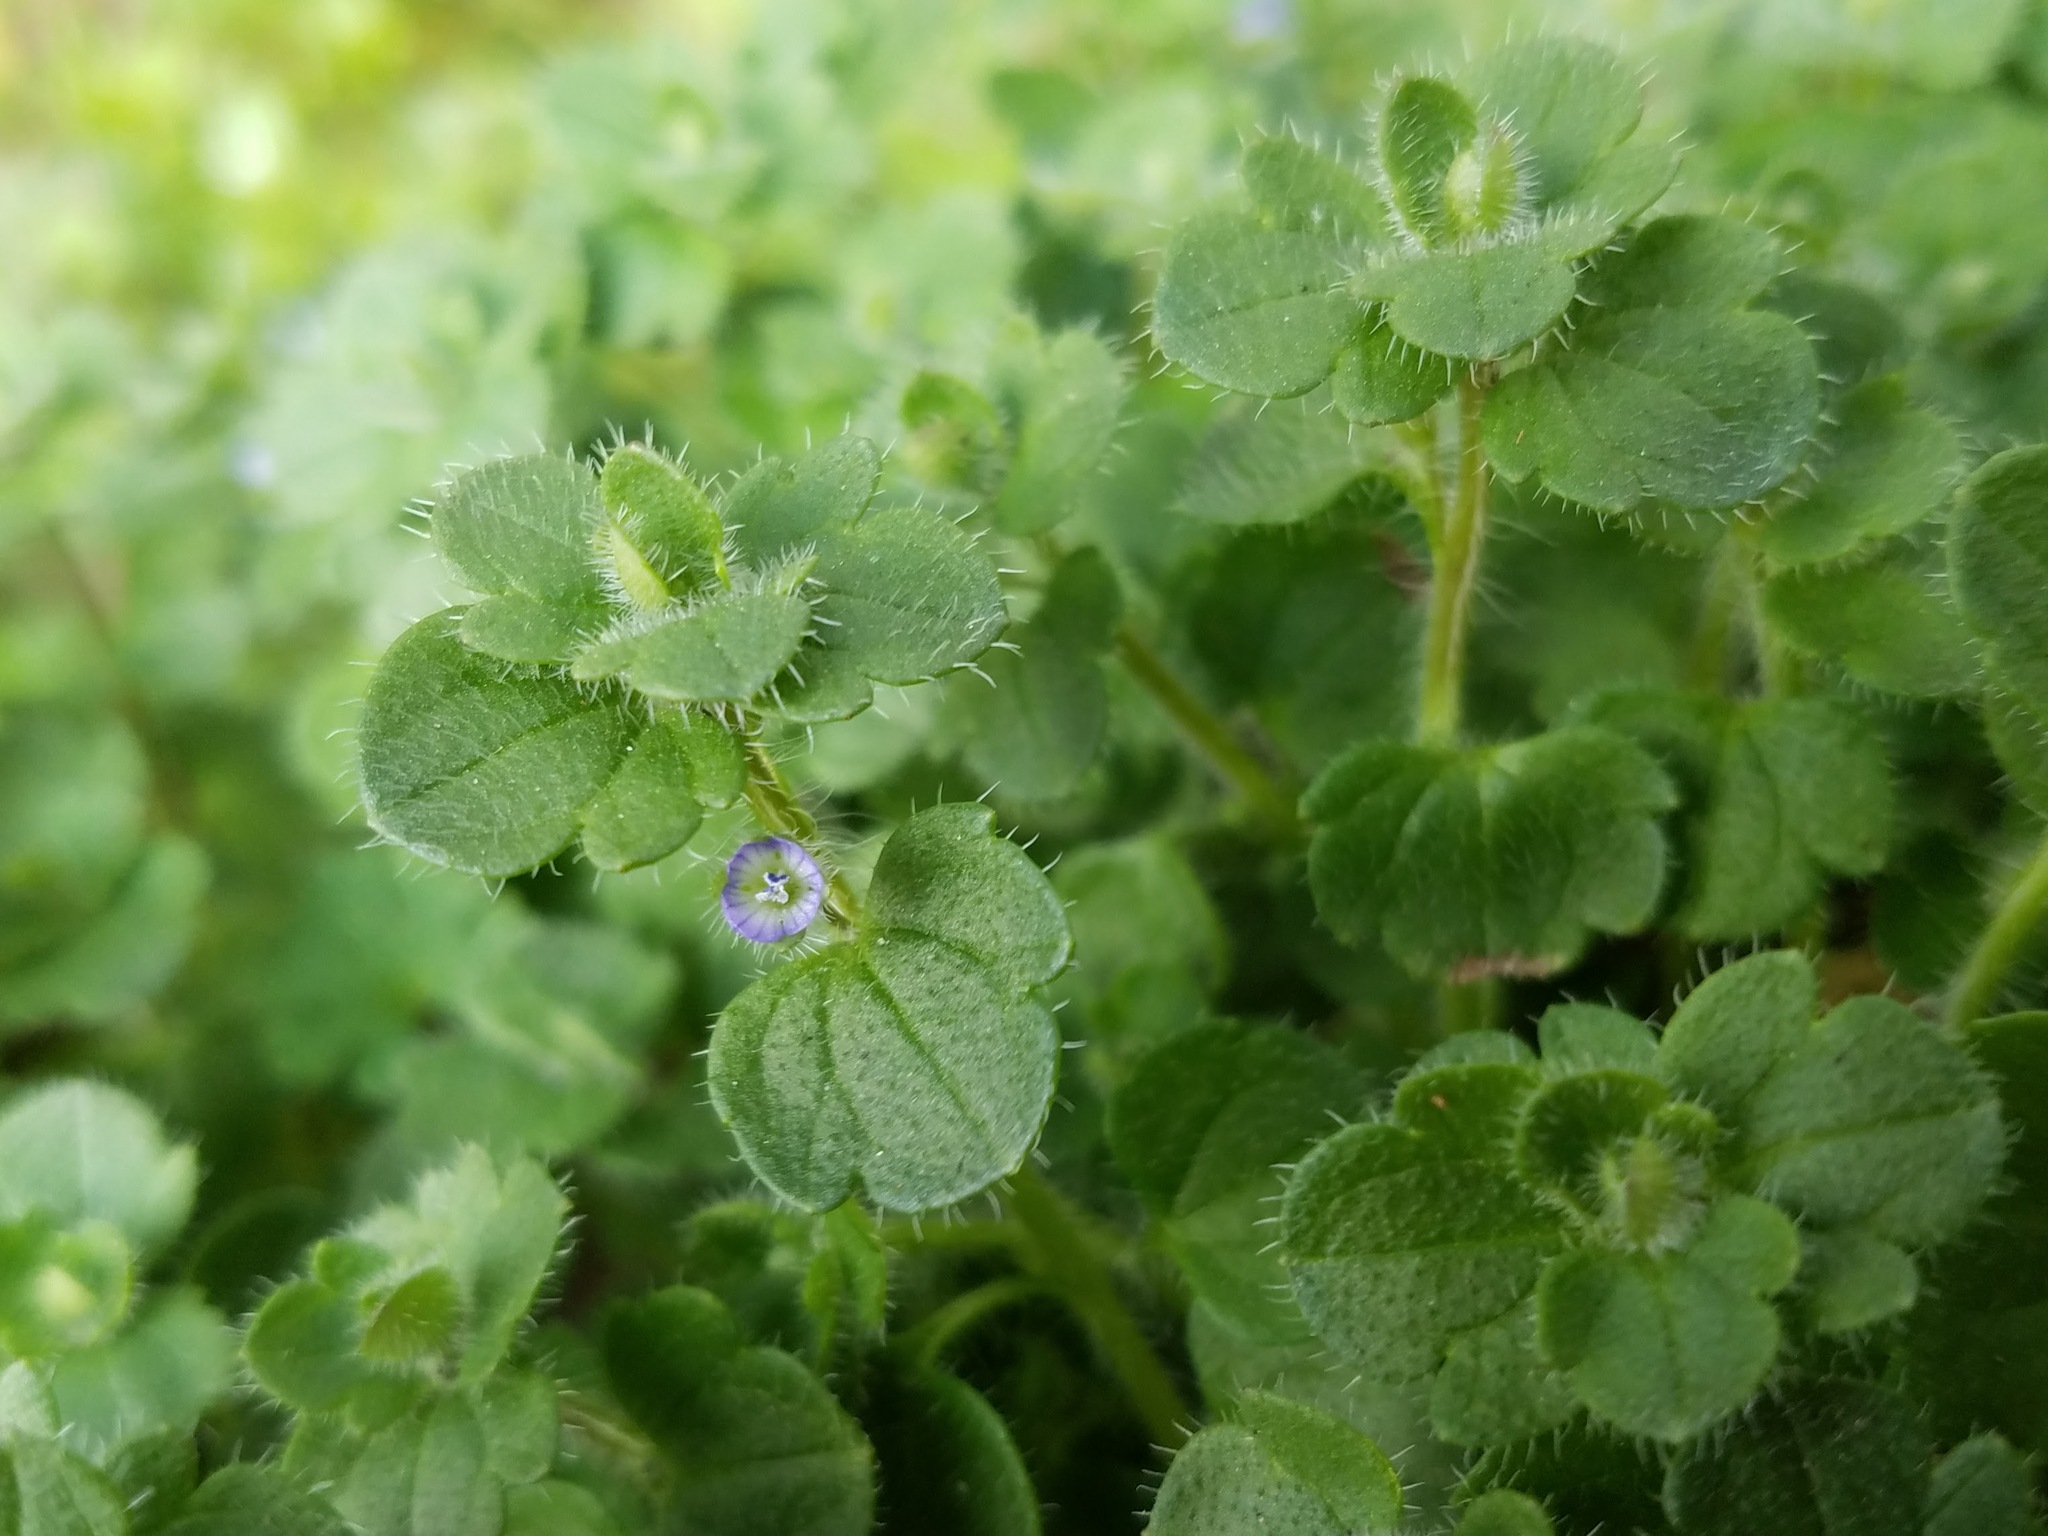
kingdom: Plantae
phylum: Tracheophyta
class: Magnoliopsida
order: Lamiales
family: Plantaginaceae
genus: Veronica
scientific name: Veronica hederifolia
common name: Ivy-leaved speedwell
